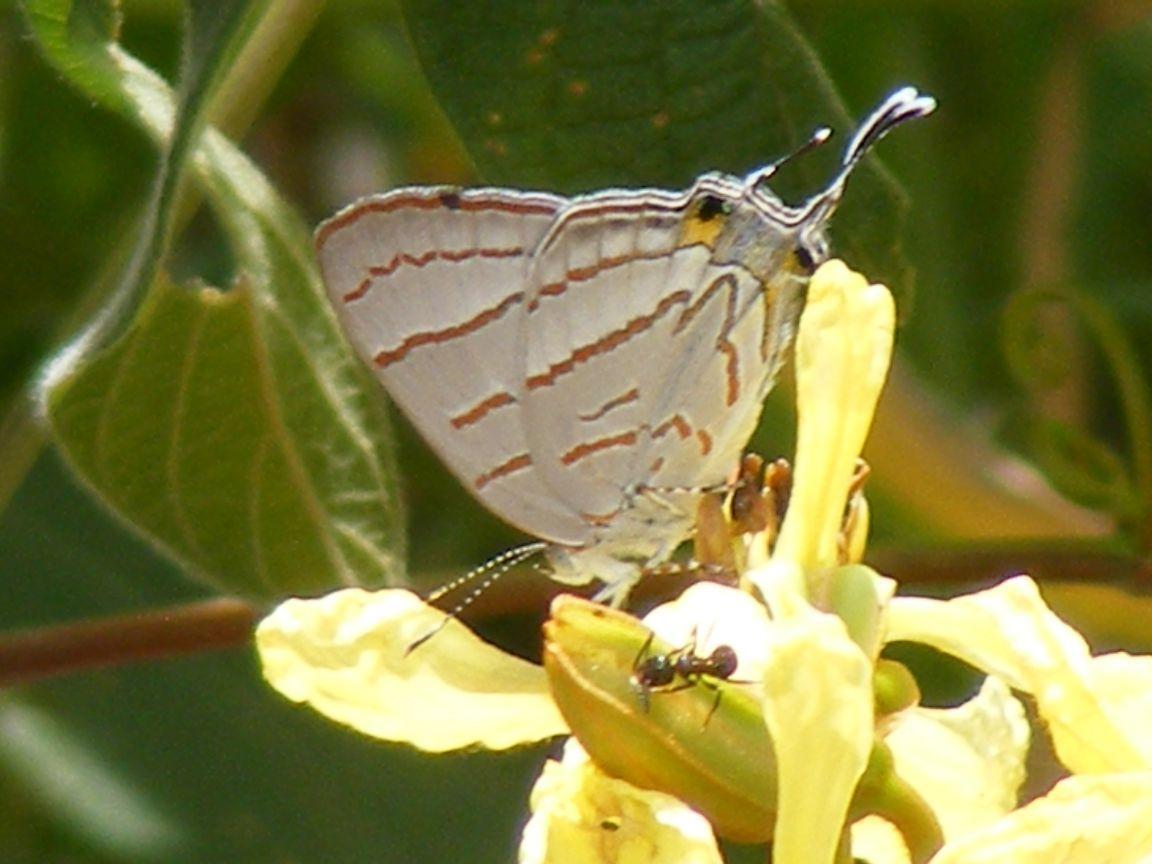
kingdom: Animalia
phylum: Arthropoda
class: Insecta
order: Lepidoptera
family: Lycaenidae
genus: Hemiolaus
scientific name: Hemiolaus caeculus
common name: Azure hairstreak
